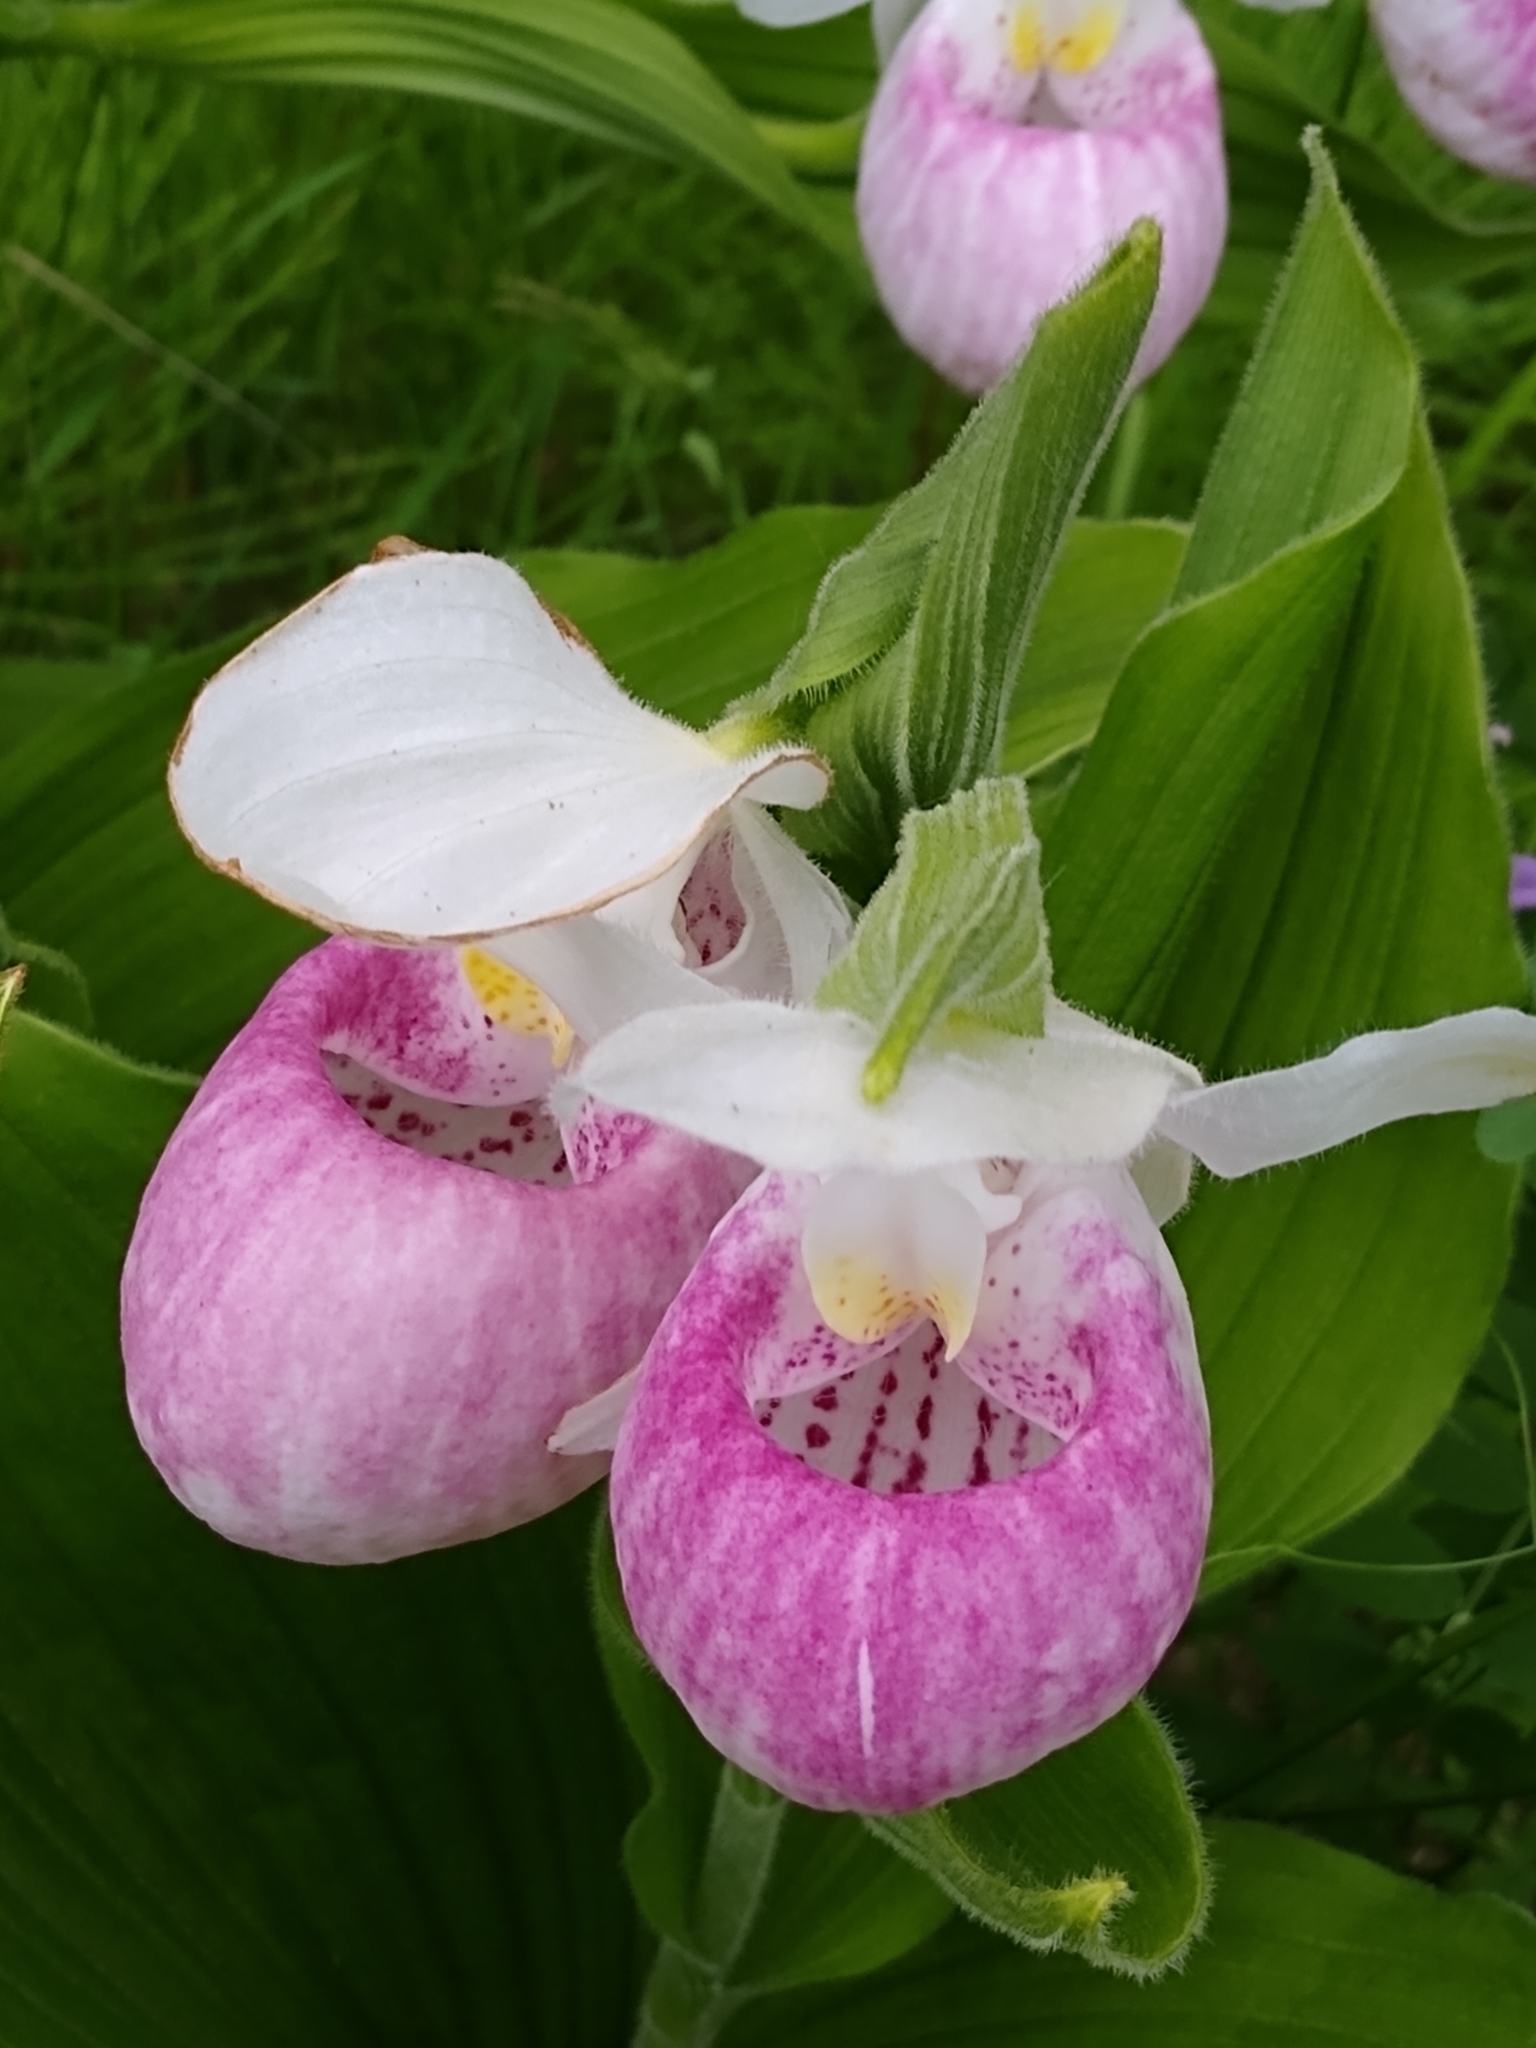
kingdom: Plantae
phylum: Tracheophyta
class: Liliopsida
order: Asparagales
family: Orchidaceae
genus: Cypripedium
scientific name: Cypripedium reginae
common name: Queen lady's-slipper
